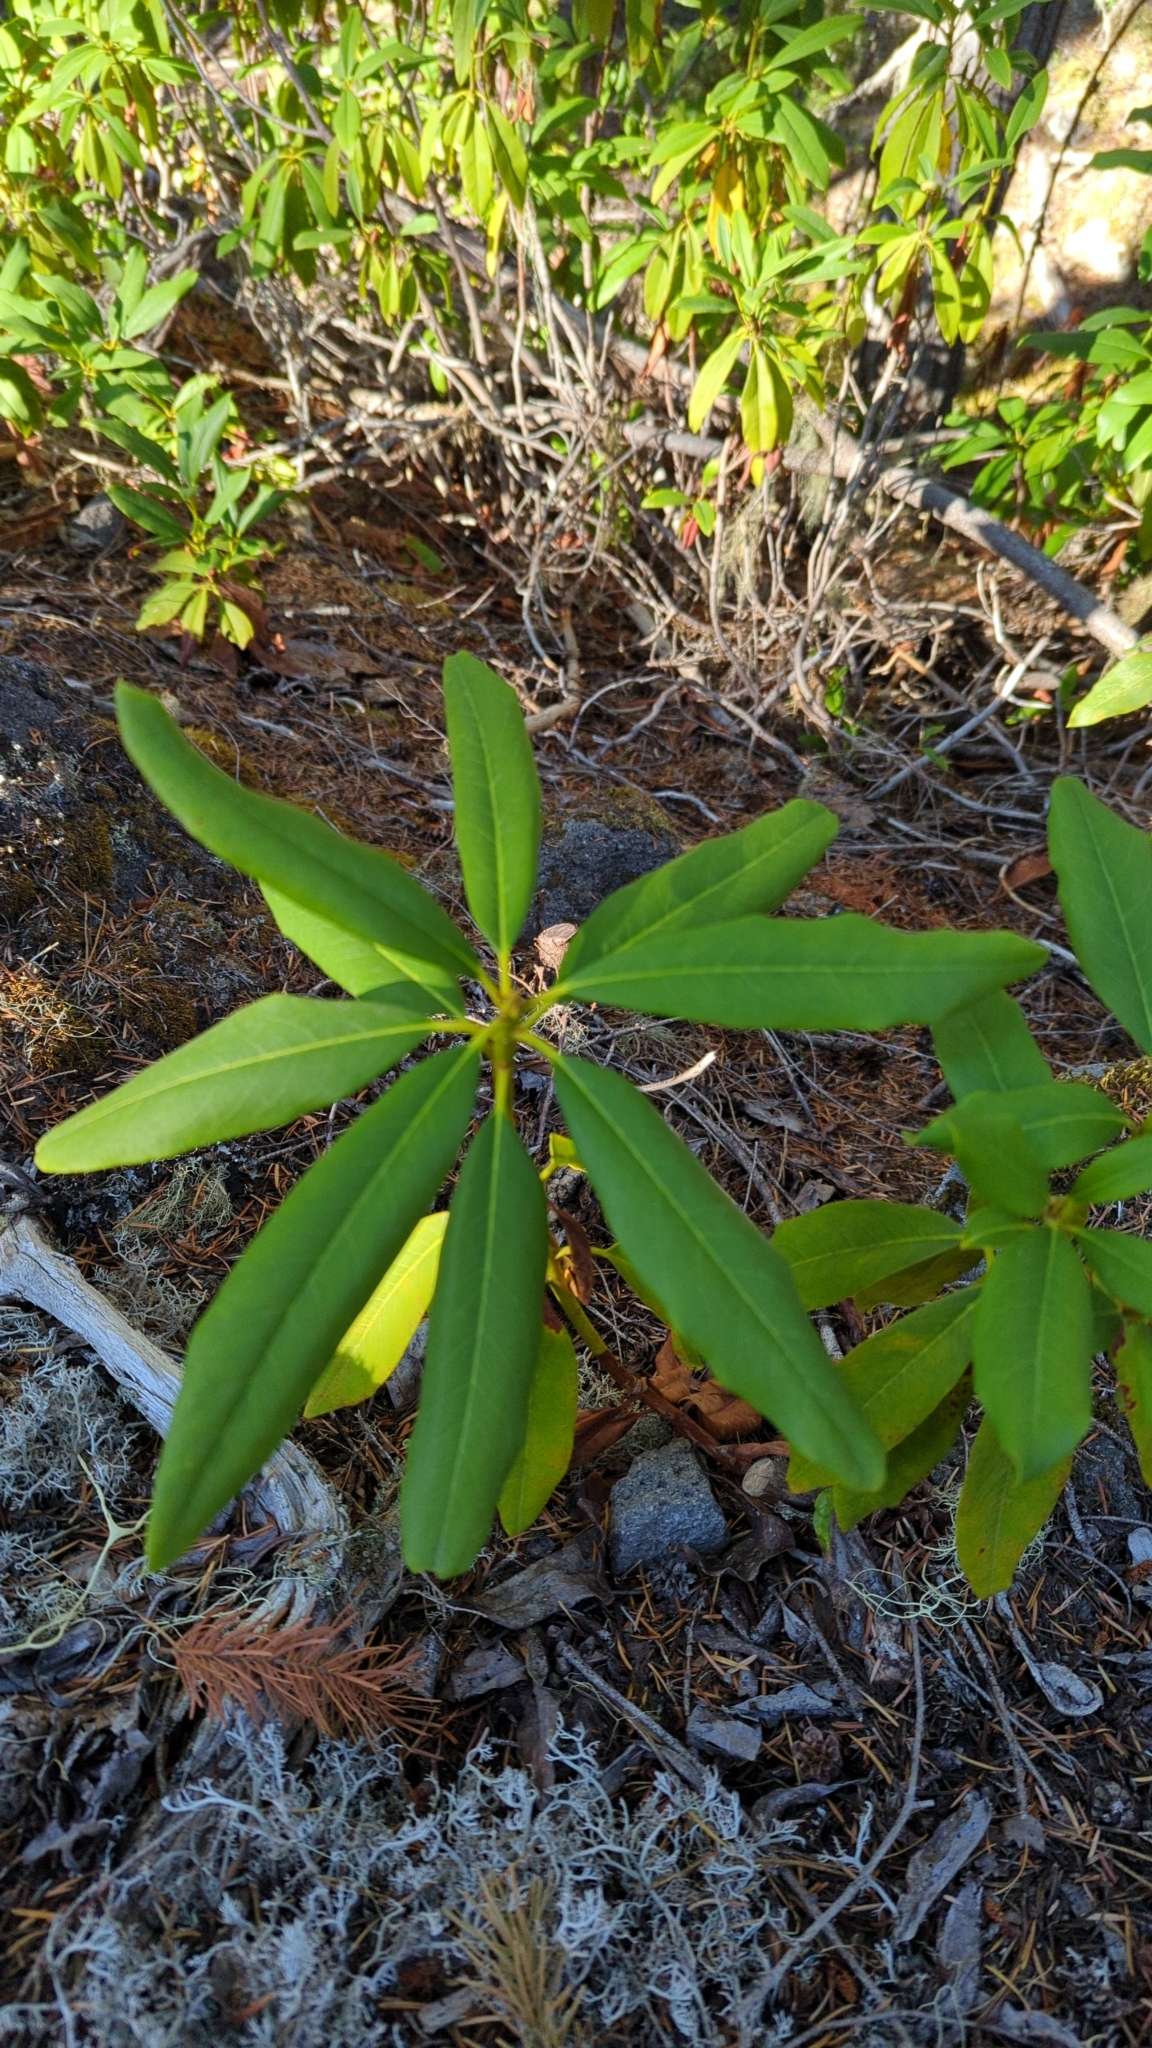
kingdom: Plantae
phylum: Tracheophyta
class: Magnoliopsida
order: Ericales
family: Ericaceae
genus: Rhododendron
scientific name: Rhododendron macrophyllum
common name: California rose bay
